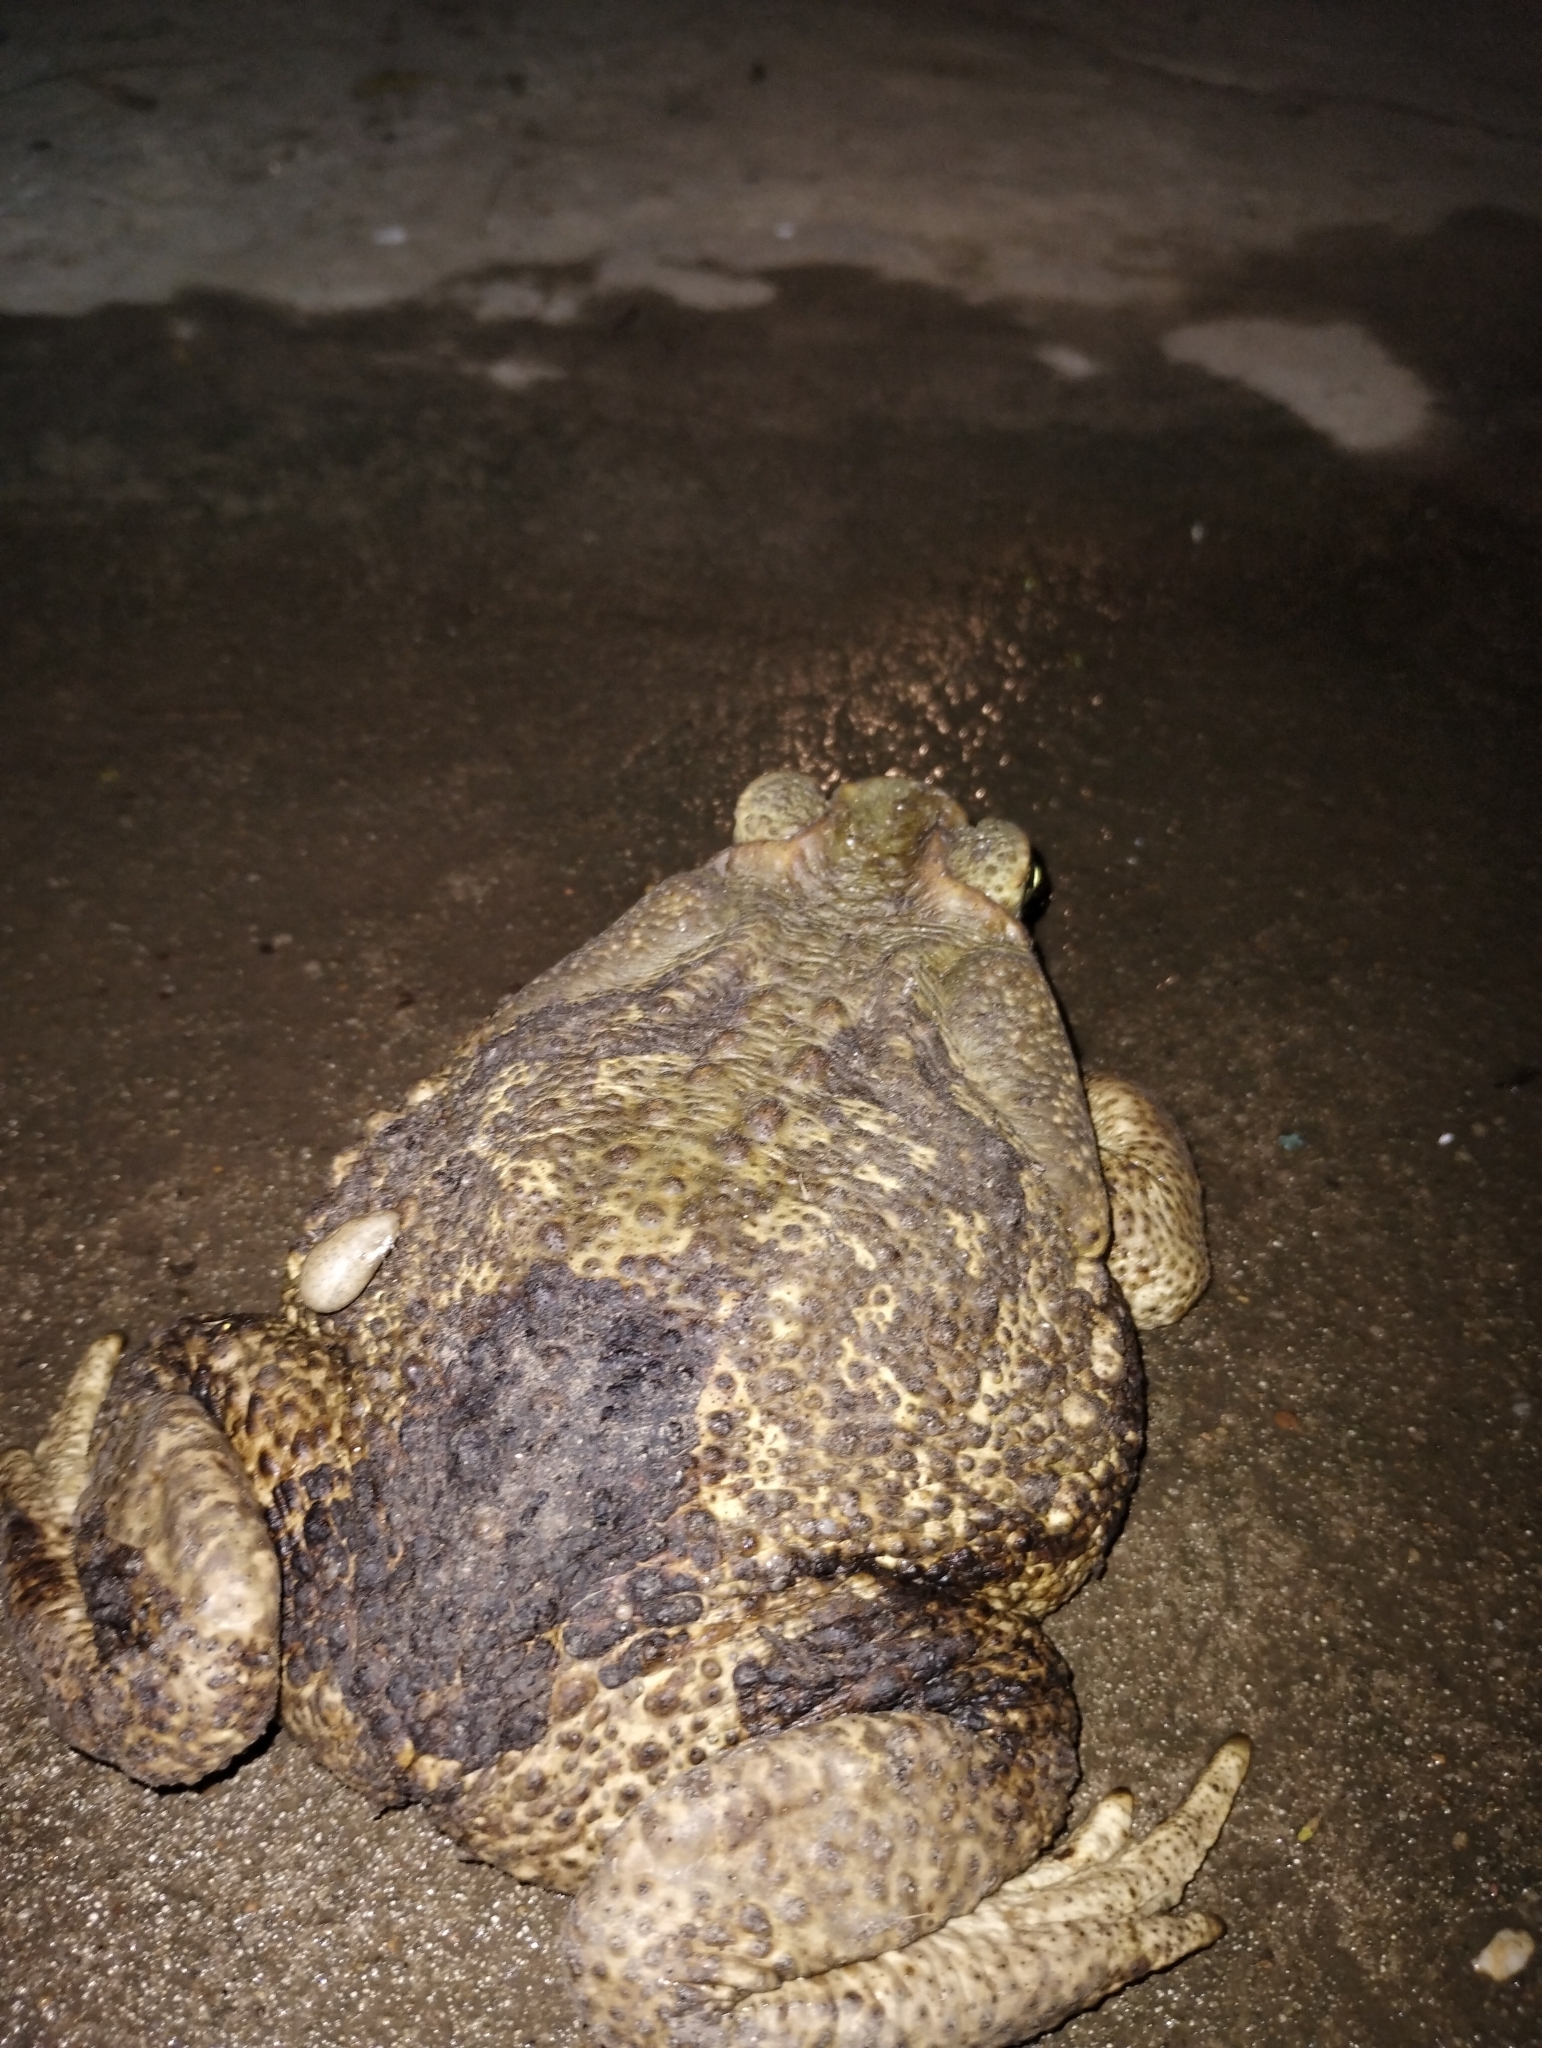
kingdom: Animalia
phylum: Chordata
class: Amphibia
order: Anura
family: Bufonidae
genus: Rhinella
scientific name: Rhinella diptycha
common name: Cope's toad
